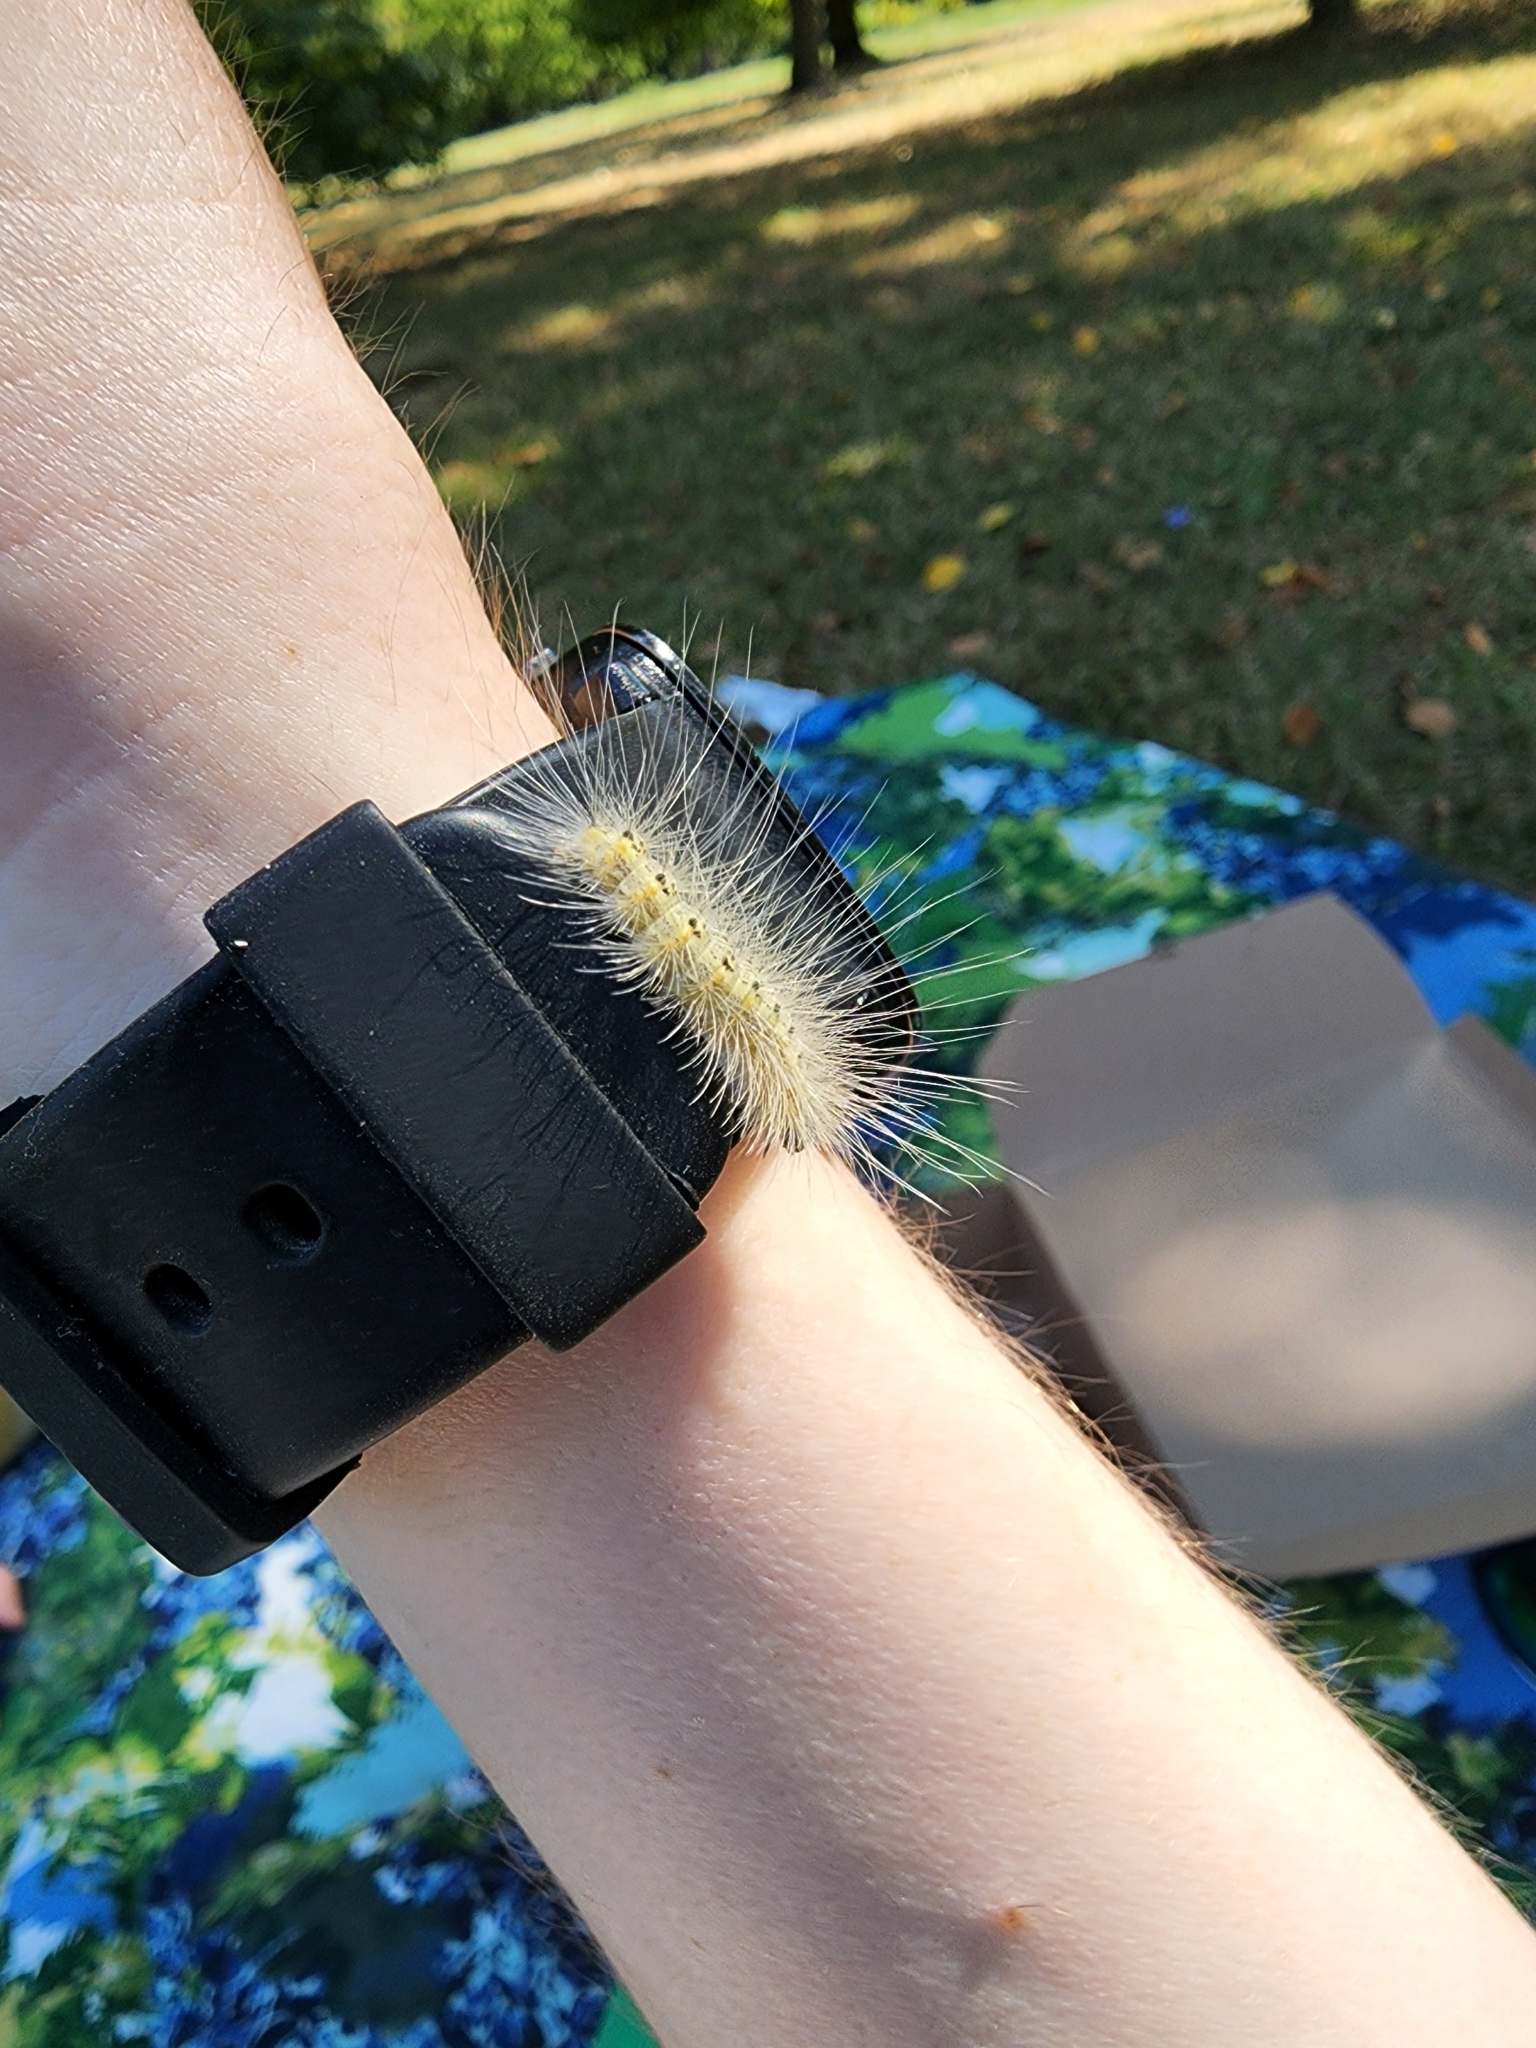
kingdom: Animalia
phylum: Arthropoda
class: Insecta
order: Lepidoptera
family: Erebidae
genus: Hyphantria
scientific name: Hyphantria cunea
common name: American white moth
